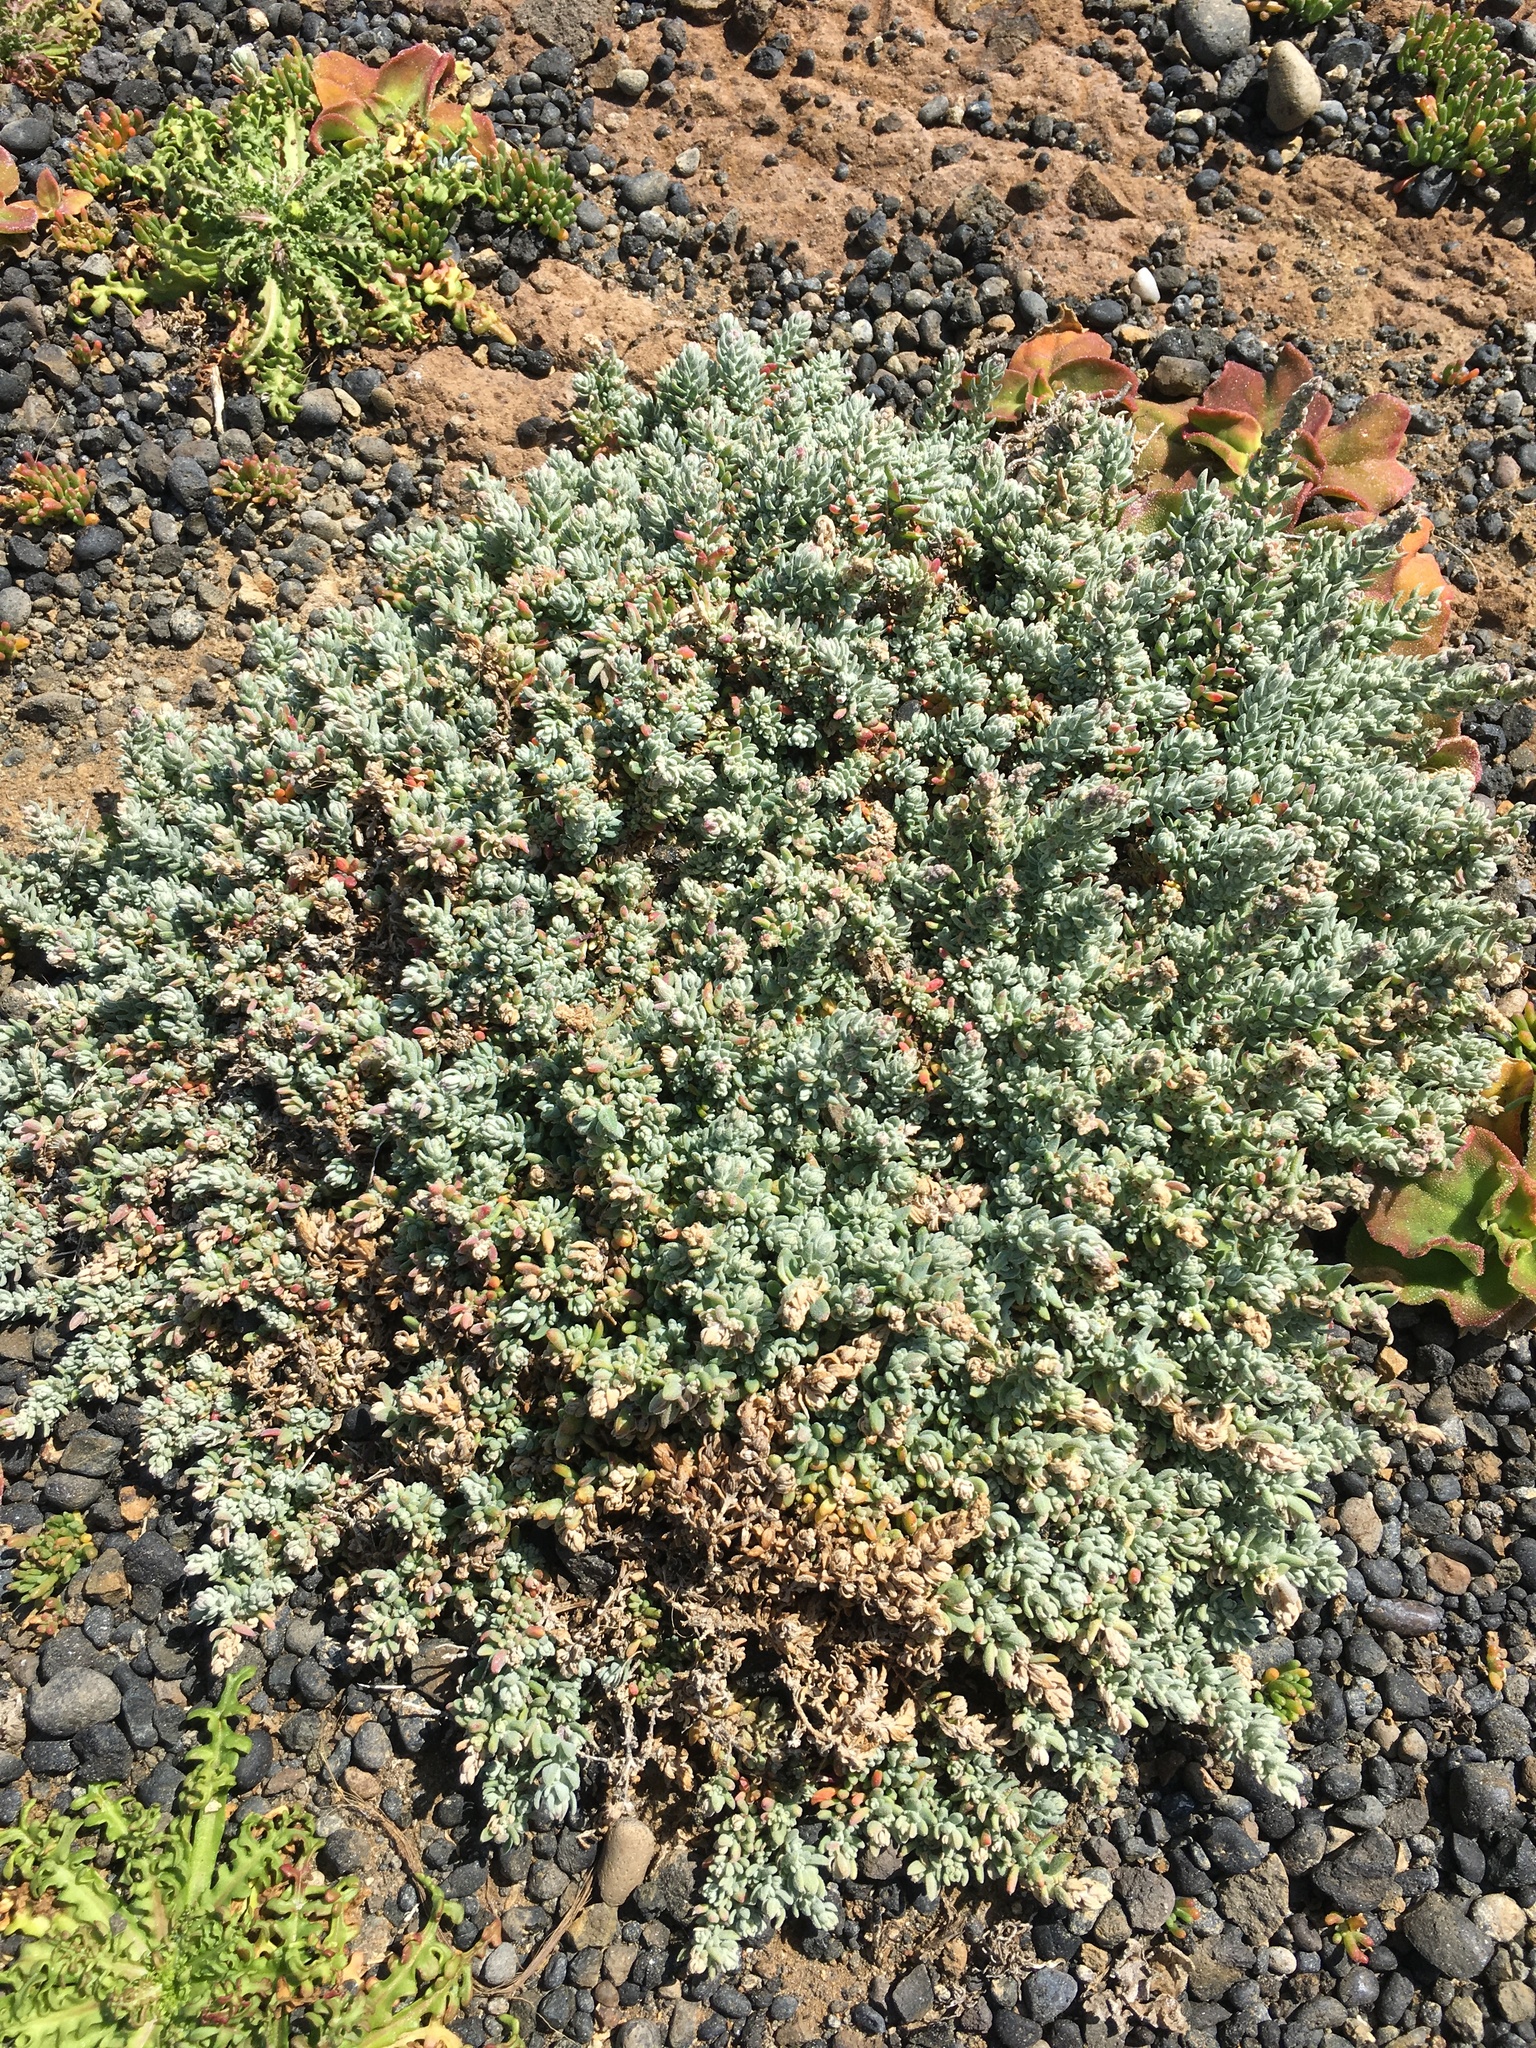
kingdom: Plantae
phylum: Tracheophyta
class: Magnoliopsida
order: Caryophyllales
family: Amaranthaceae
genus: Extriplex
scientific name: Extriplex californica
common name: California saltbush
